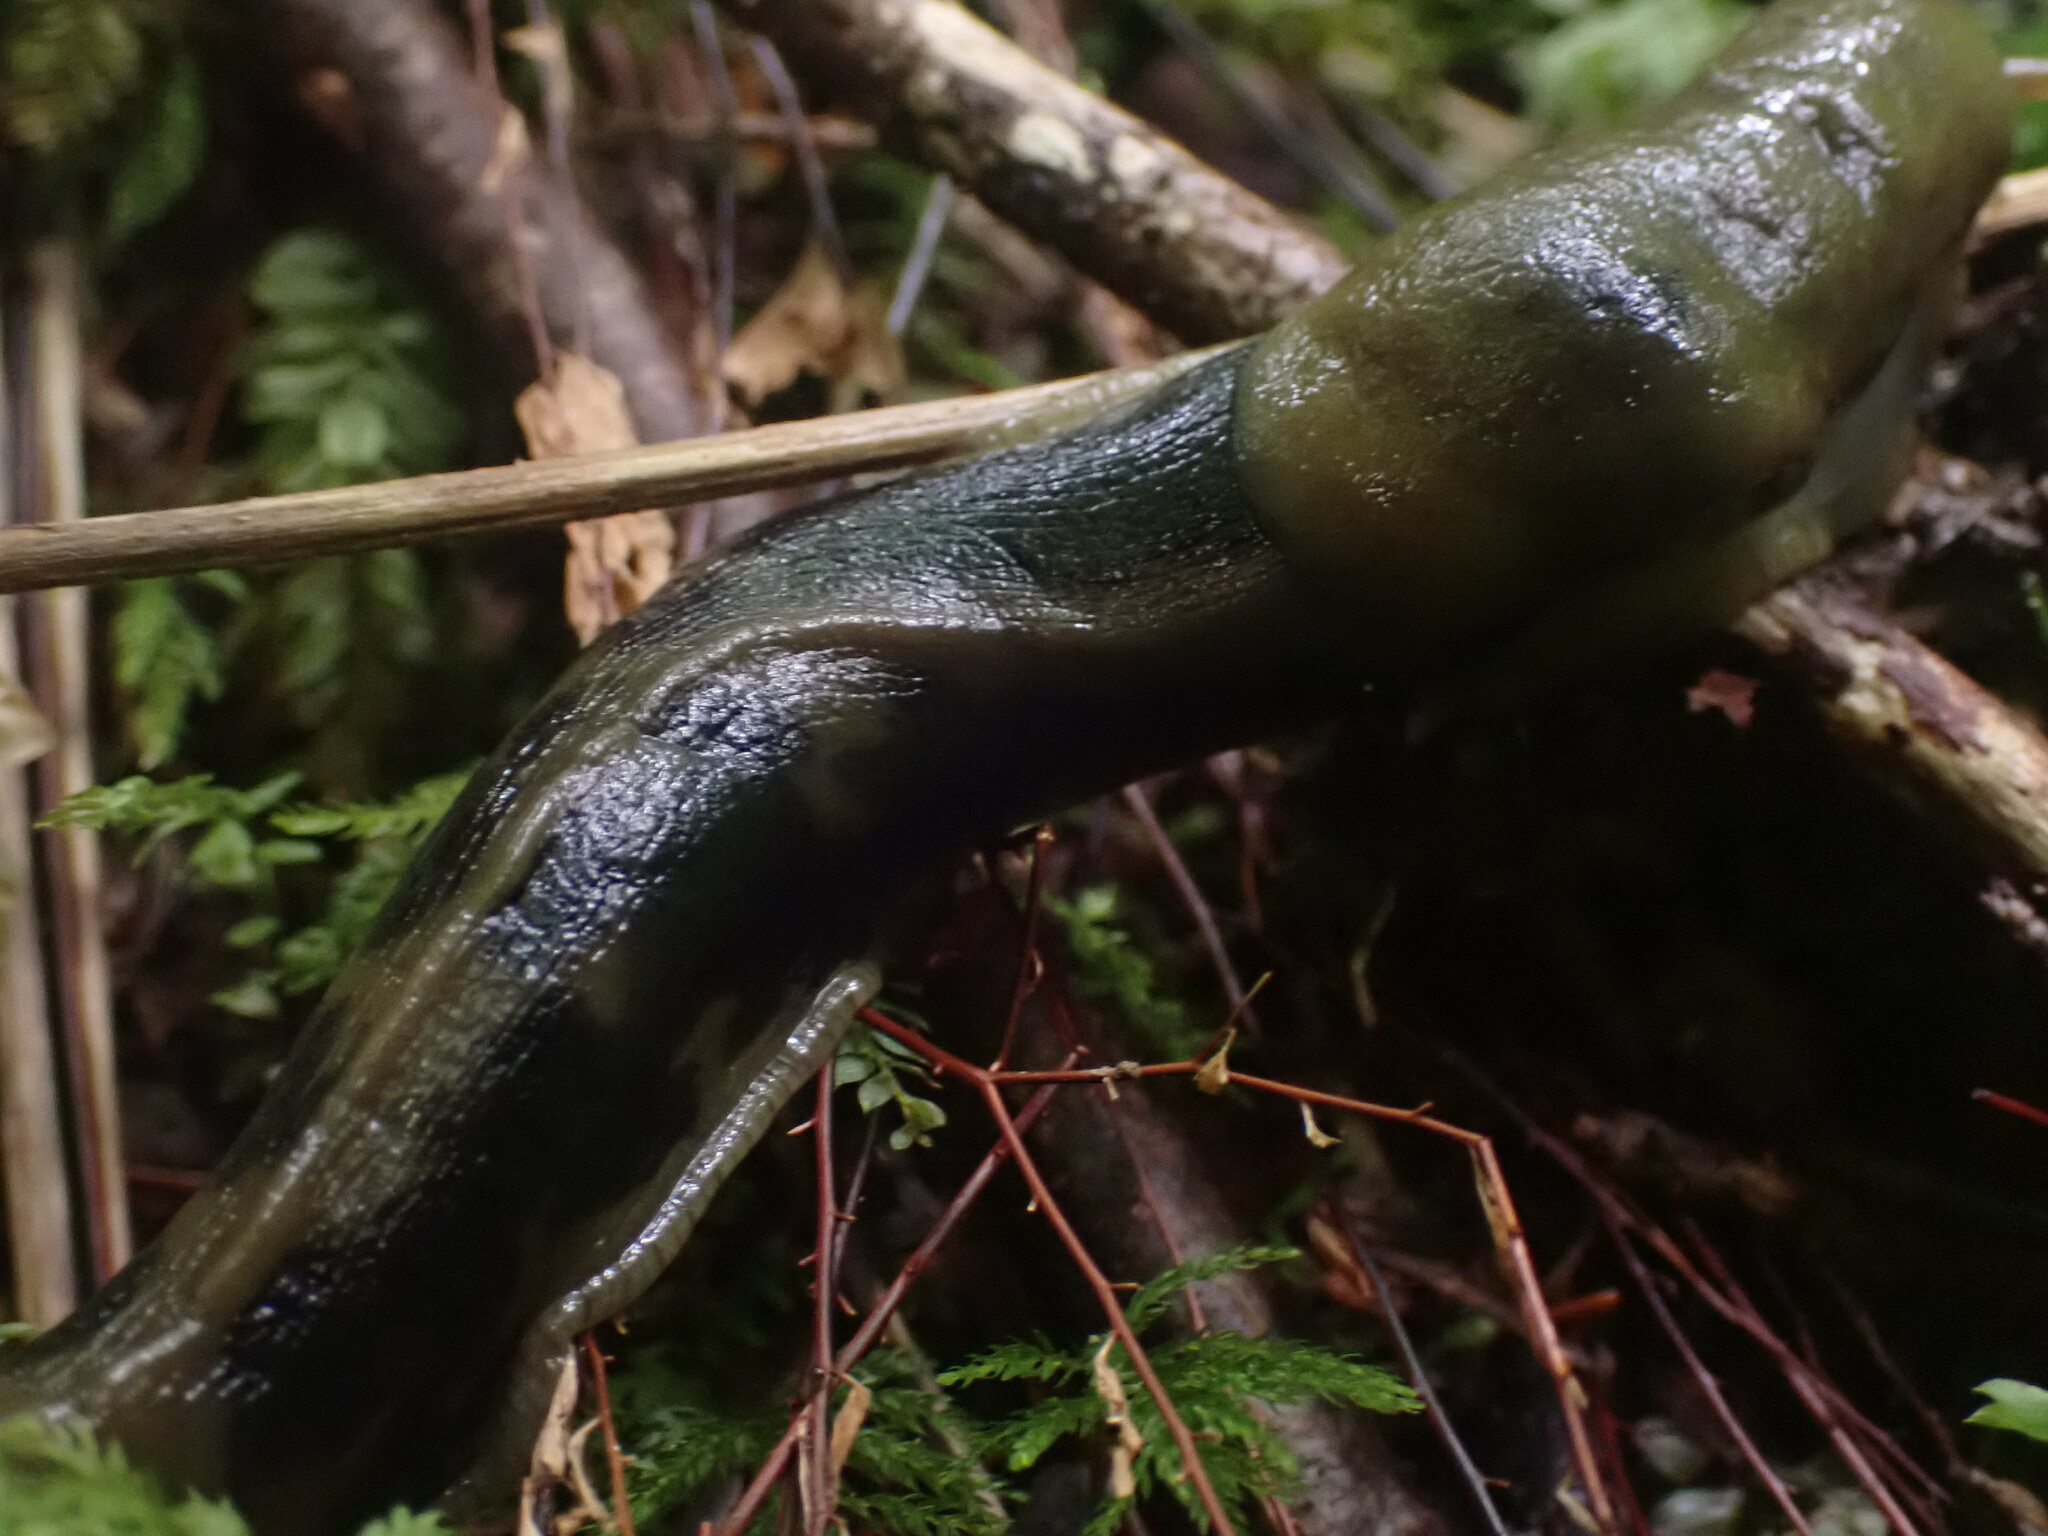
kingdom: Animalia
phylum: Mollusca
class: Gastropoda
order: Stylommatophora
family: Ariolimacidae
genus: Ariolimax
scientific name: Ariolimax columbianus
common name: Pacific banana slug
